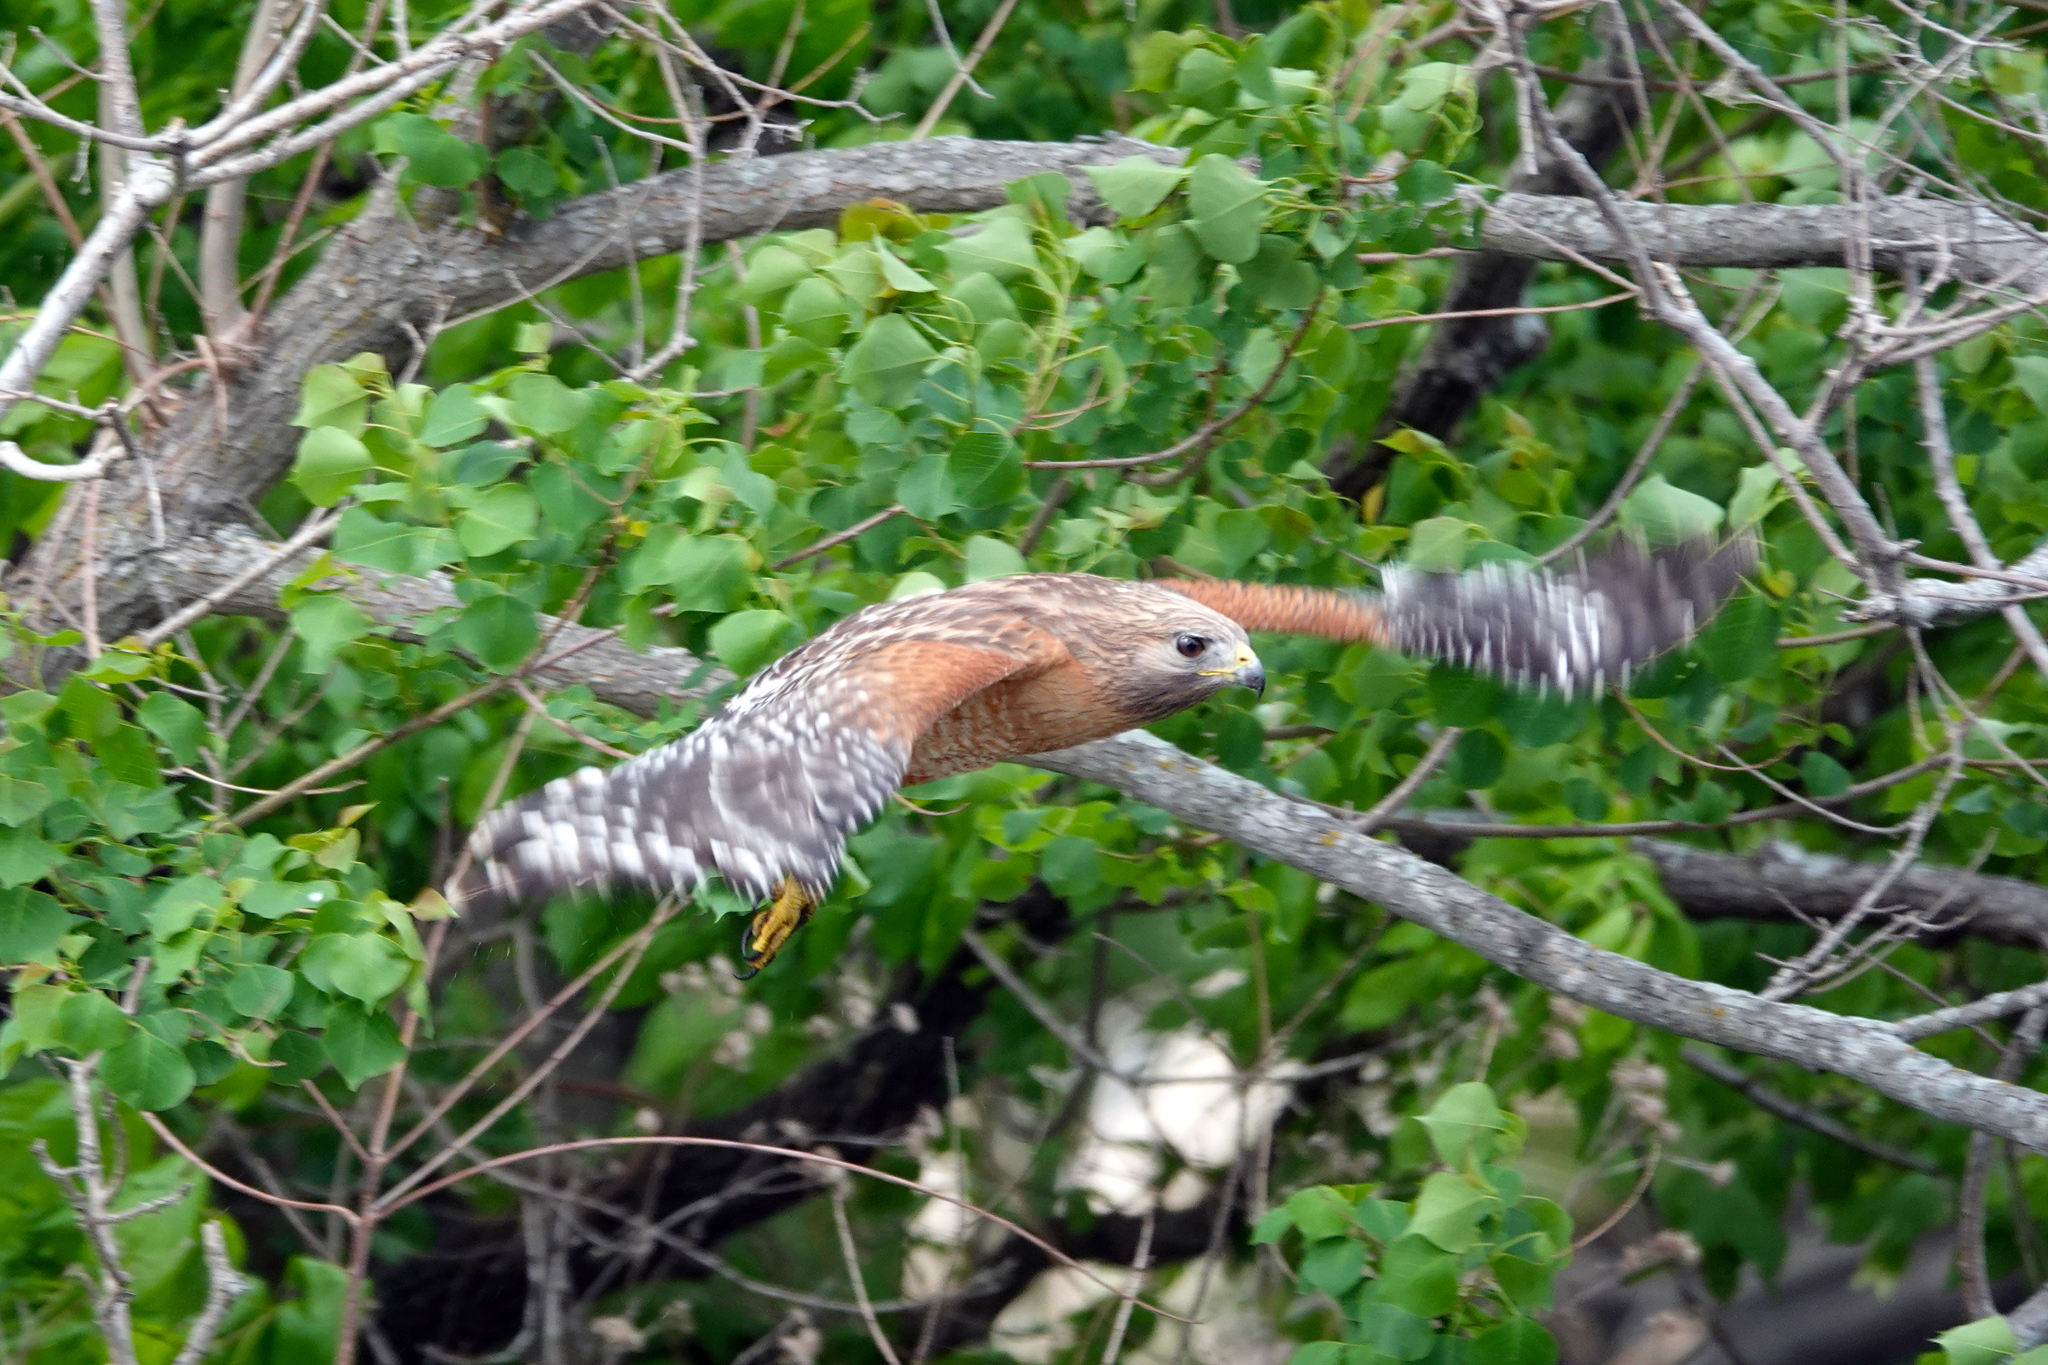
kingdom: Animalia
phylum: Chordata
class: Aves
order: Accipitriformes
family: Accipitridae
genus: Buteo
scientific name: Buteo lineatus
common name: Red-shouldered hawk
